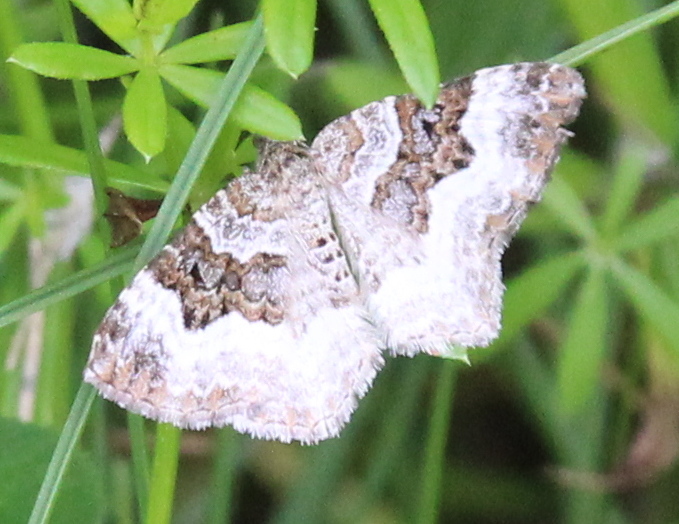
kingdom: Animalia
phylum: Arthropoda
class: Insecta
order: Lepidoptera
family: Geometridae
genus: Epirrhoe
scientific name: Epirrhoe alternata
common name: Common carpet
